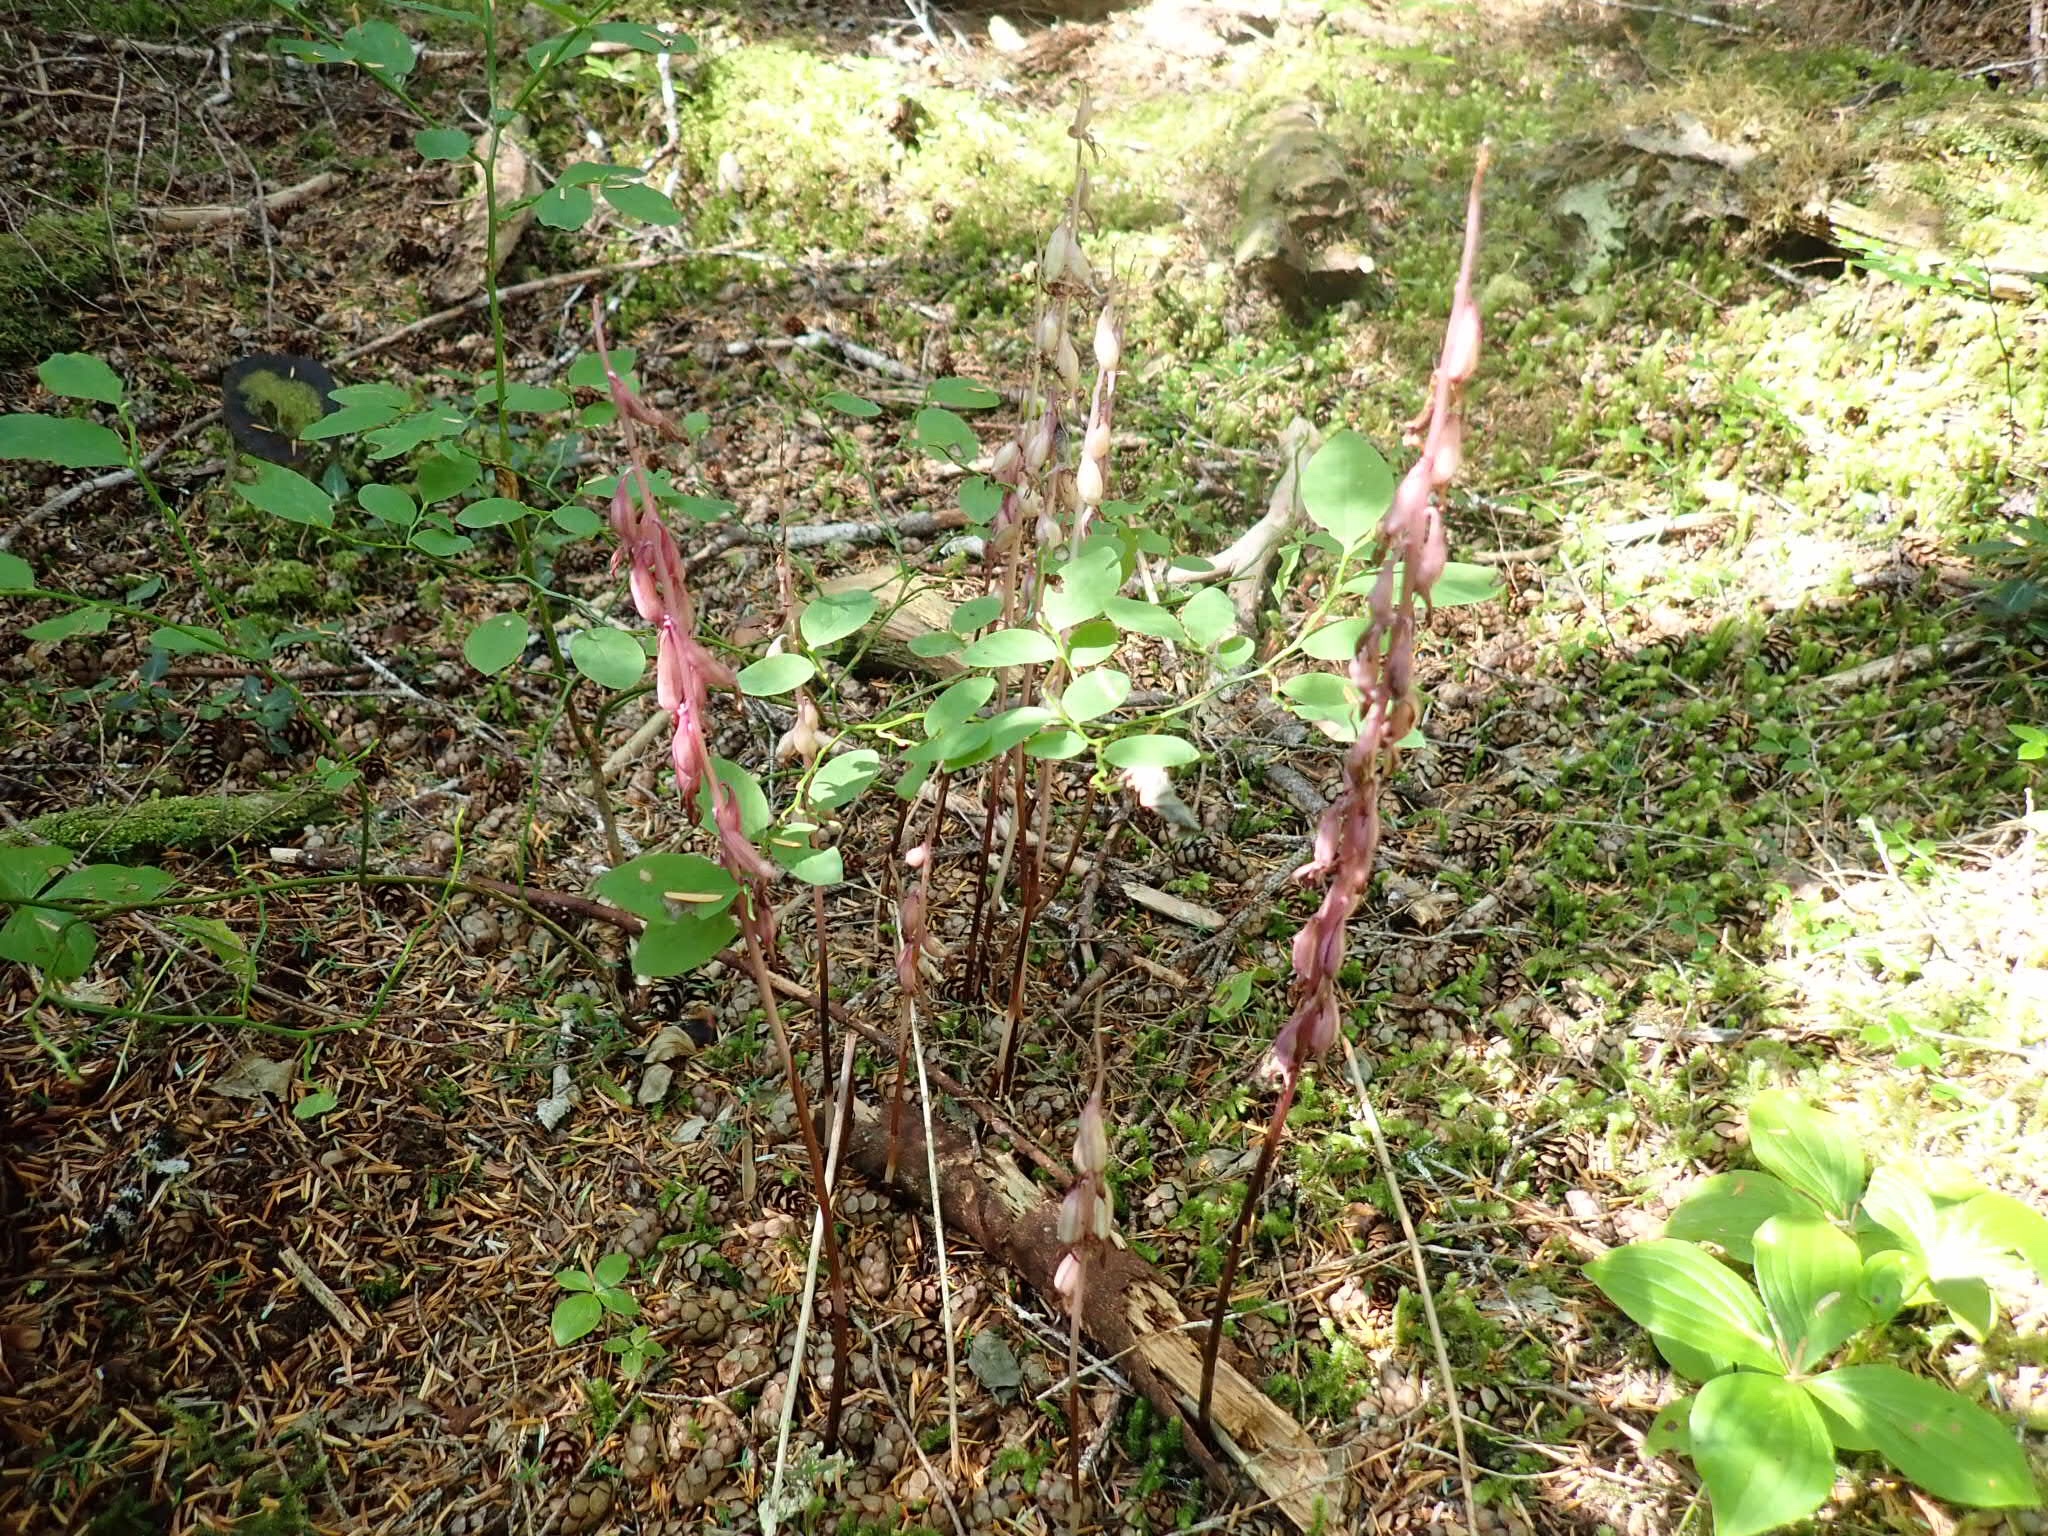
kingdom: Plantae
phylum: Tracheophyta
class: Liliopsida
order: Asparagales
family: Orchidaceae
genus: Corallorhiza
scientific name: Corallorhiza mertensiana
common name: Pacific coralroot
